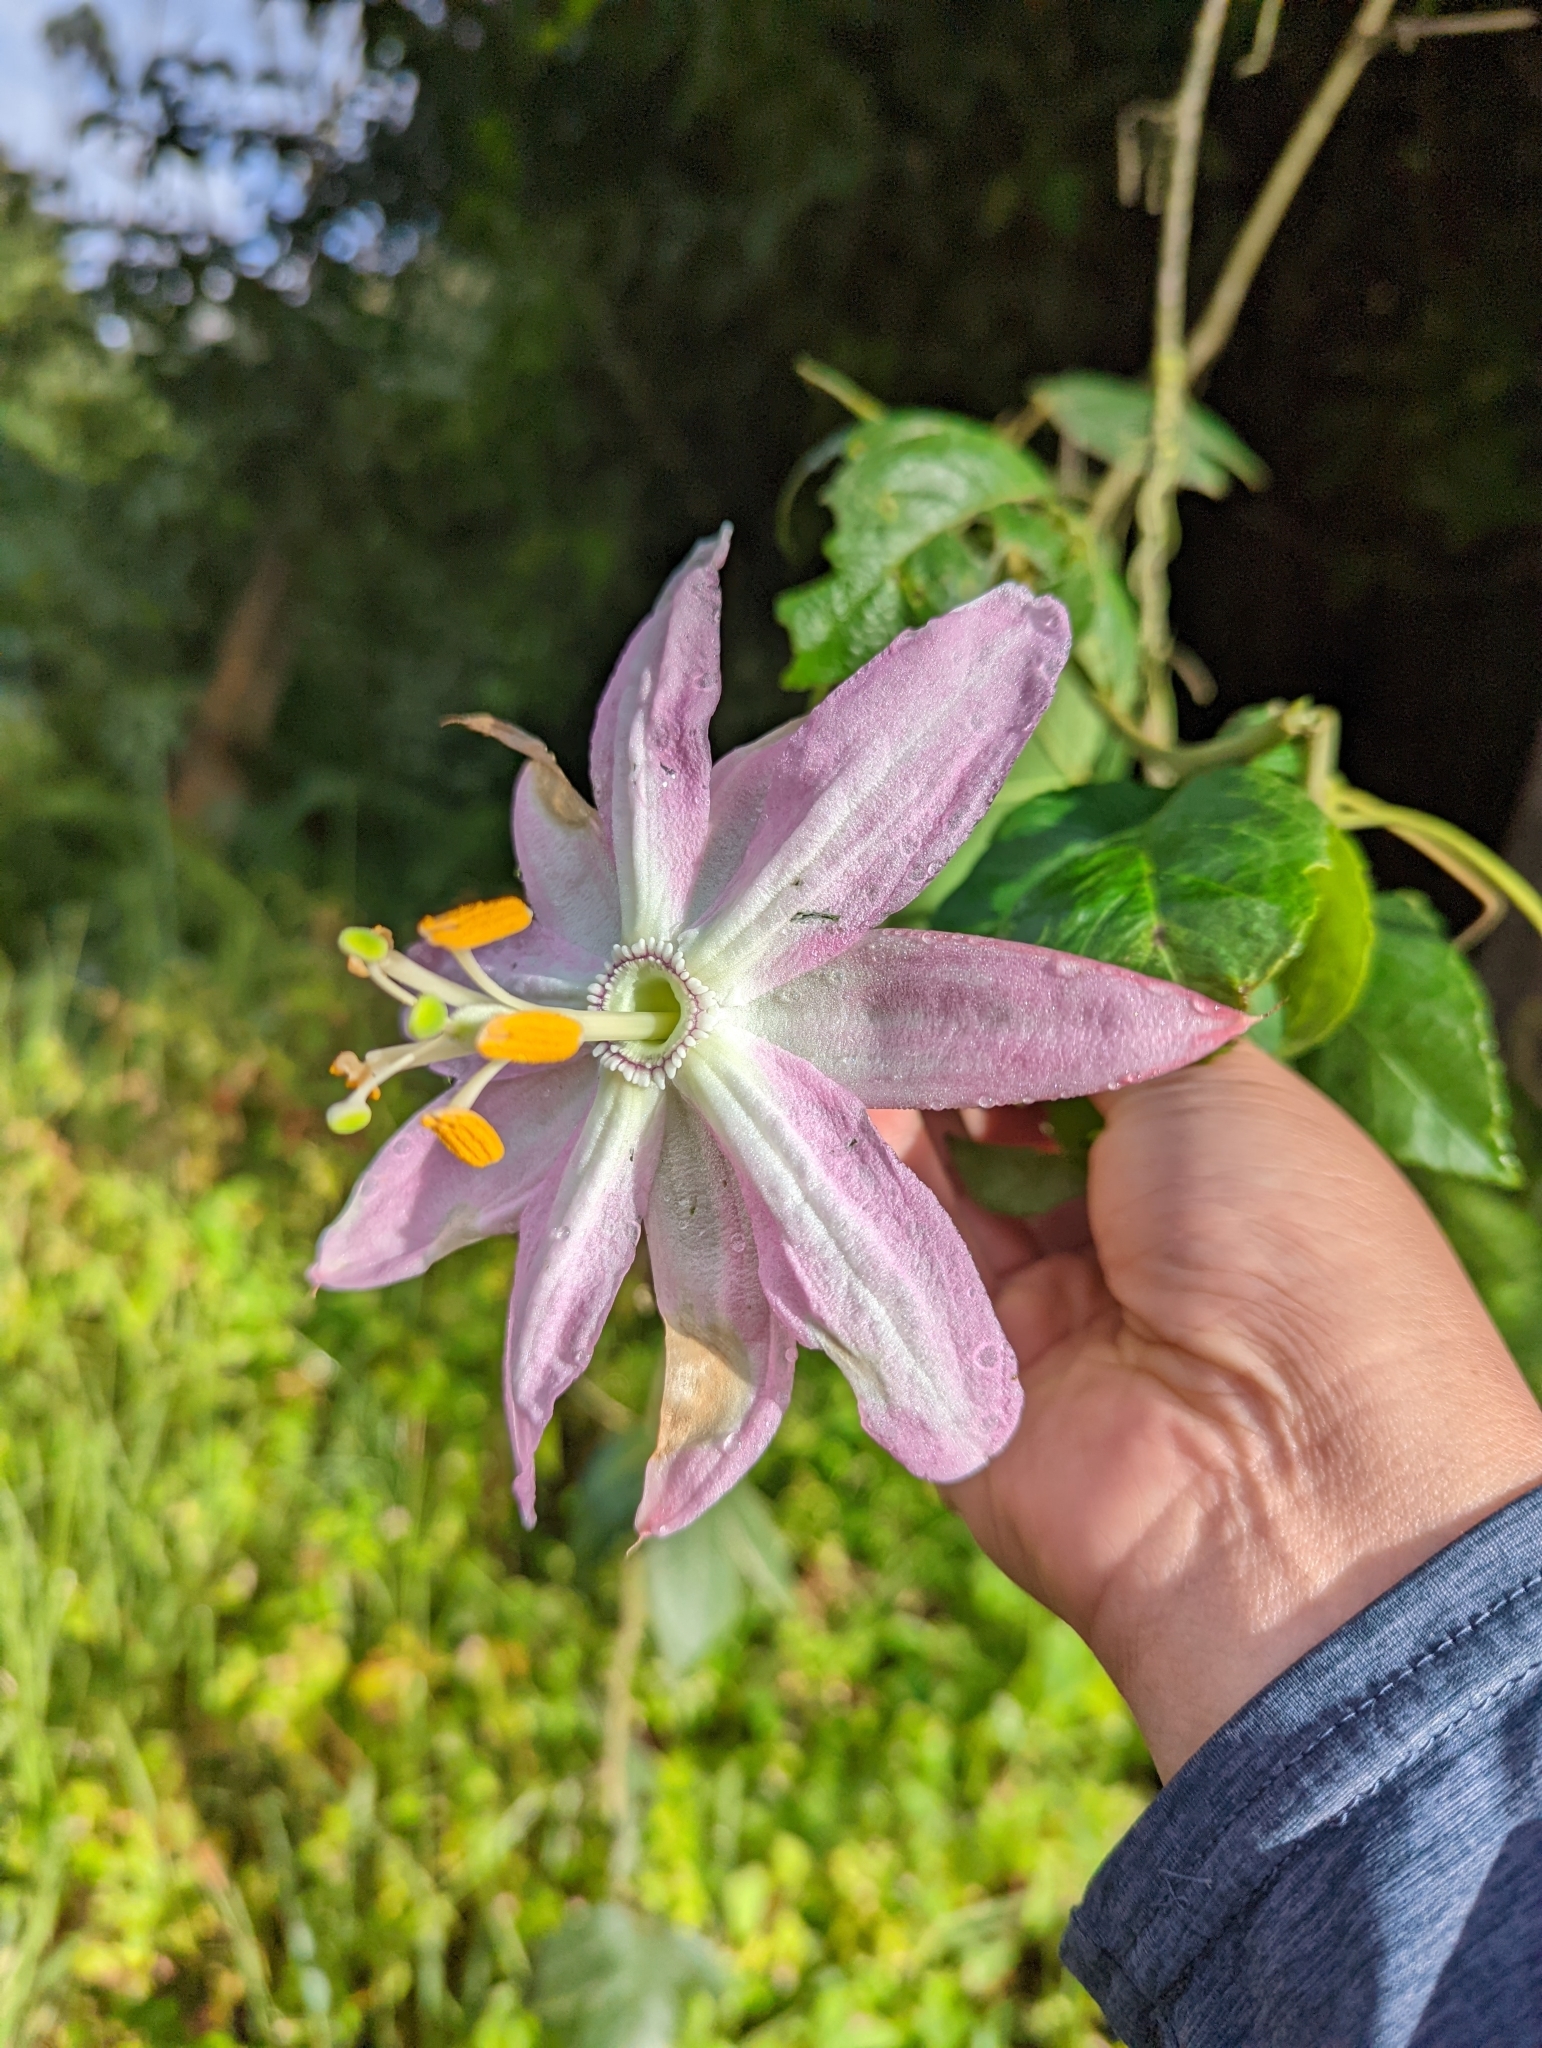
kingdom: Plantae
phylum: Tracheophyta
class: Magnoliopsida
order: Malpighiales
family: Passifloraceae
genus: Passiflora
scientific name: Passiflora tarminiana
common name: Banana poka
